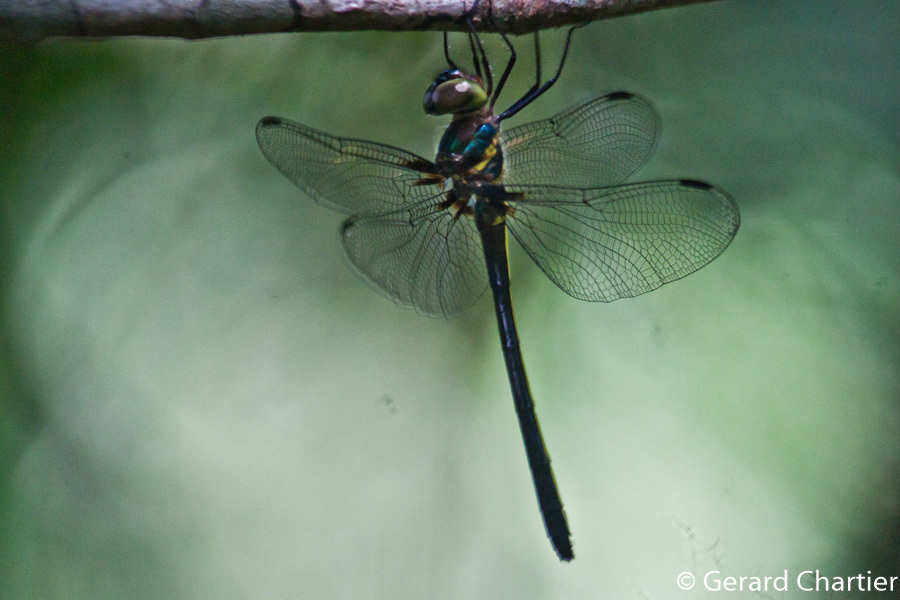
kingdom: Animalia
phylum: Arthropoda
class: Insecta
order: Odonata
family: Libellulidae
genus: Zygonyx
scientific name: Zygonyx iris
